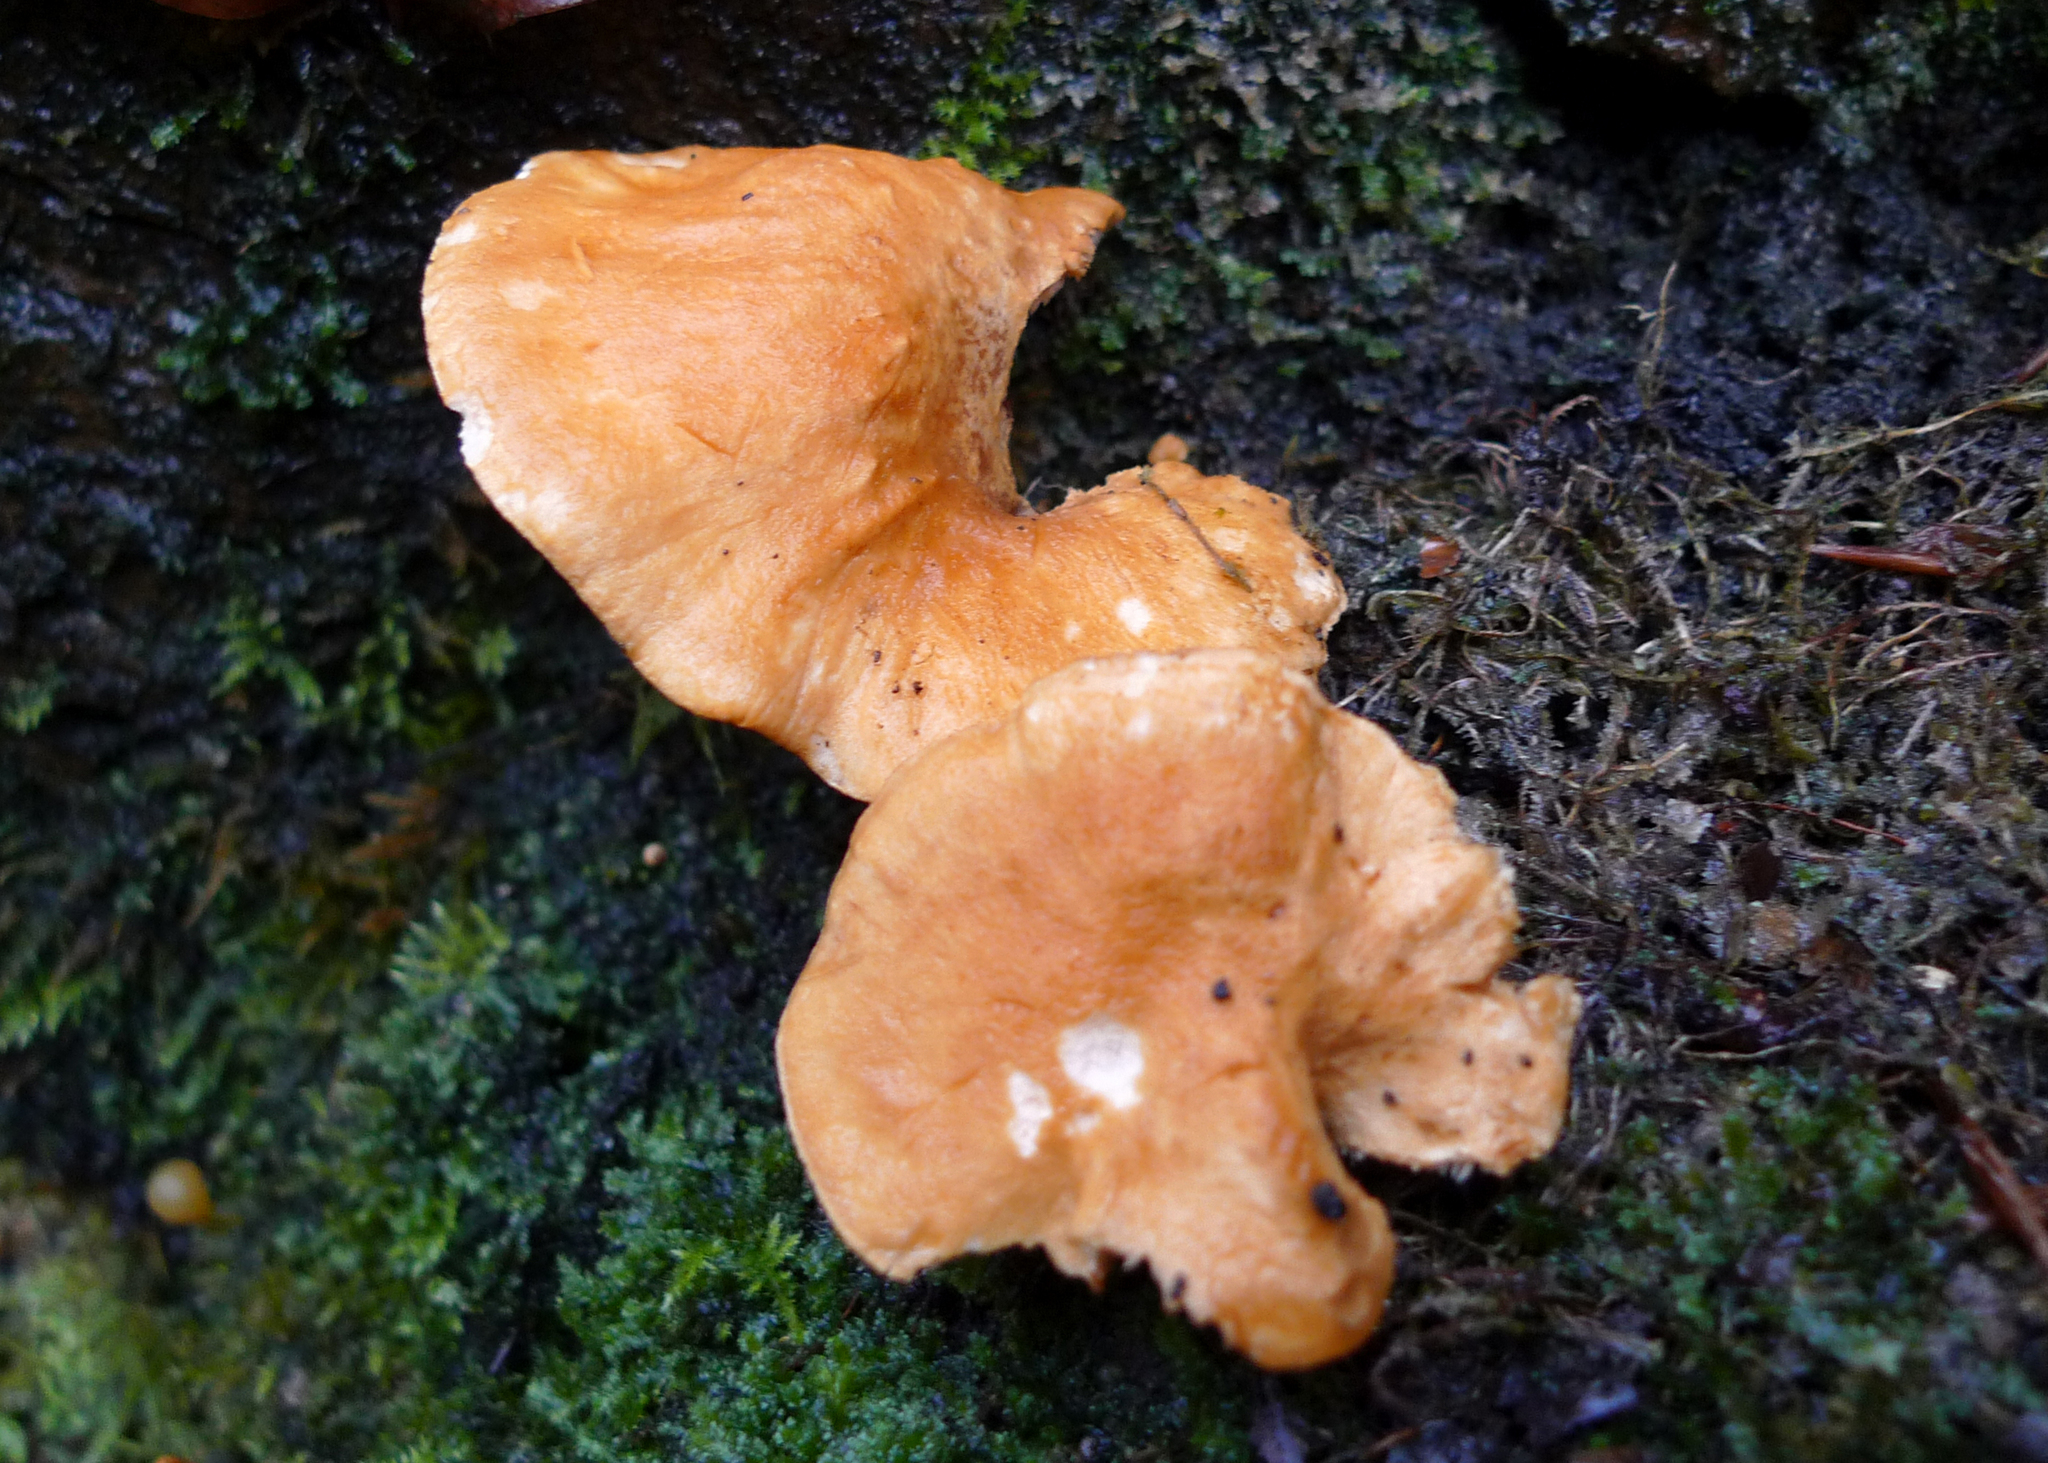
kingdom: Fungi
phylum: Basidiomycota
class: Agaricomycetes
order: Cantharellales
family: Hydnaceae
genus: Hydnum
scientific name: Hydnum rufescens
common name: Terracotta hedgehog
